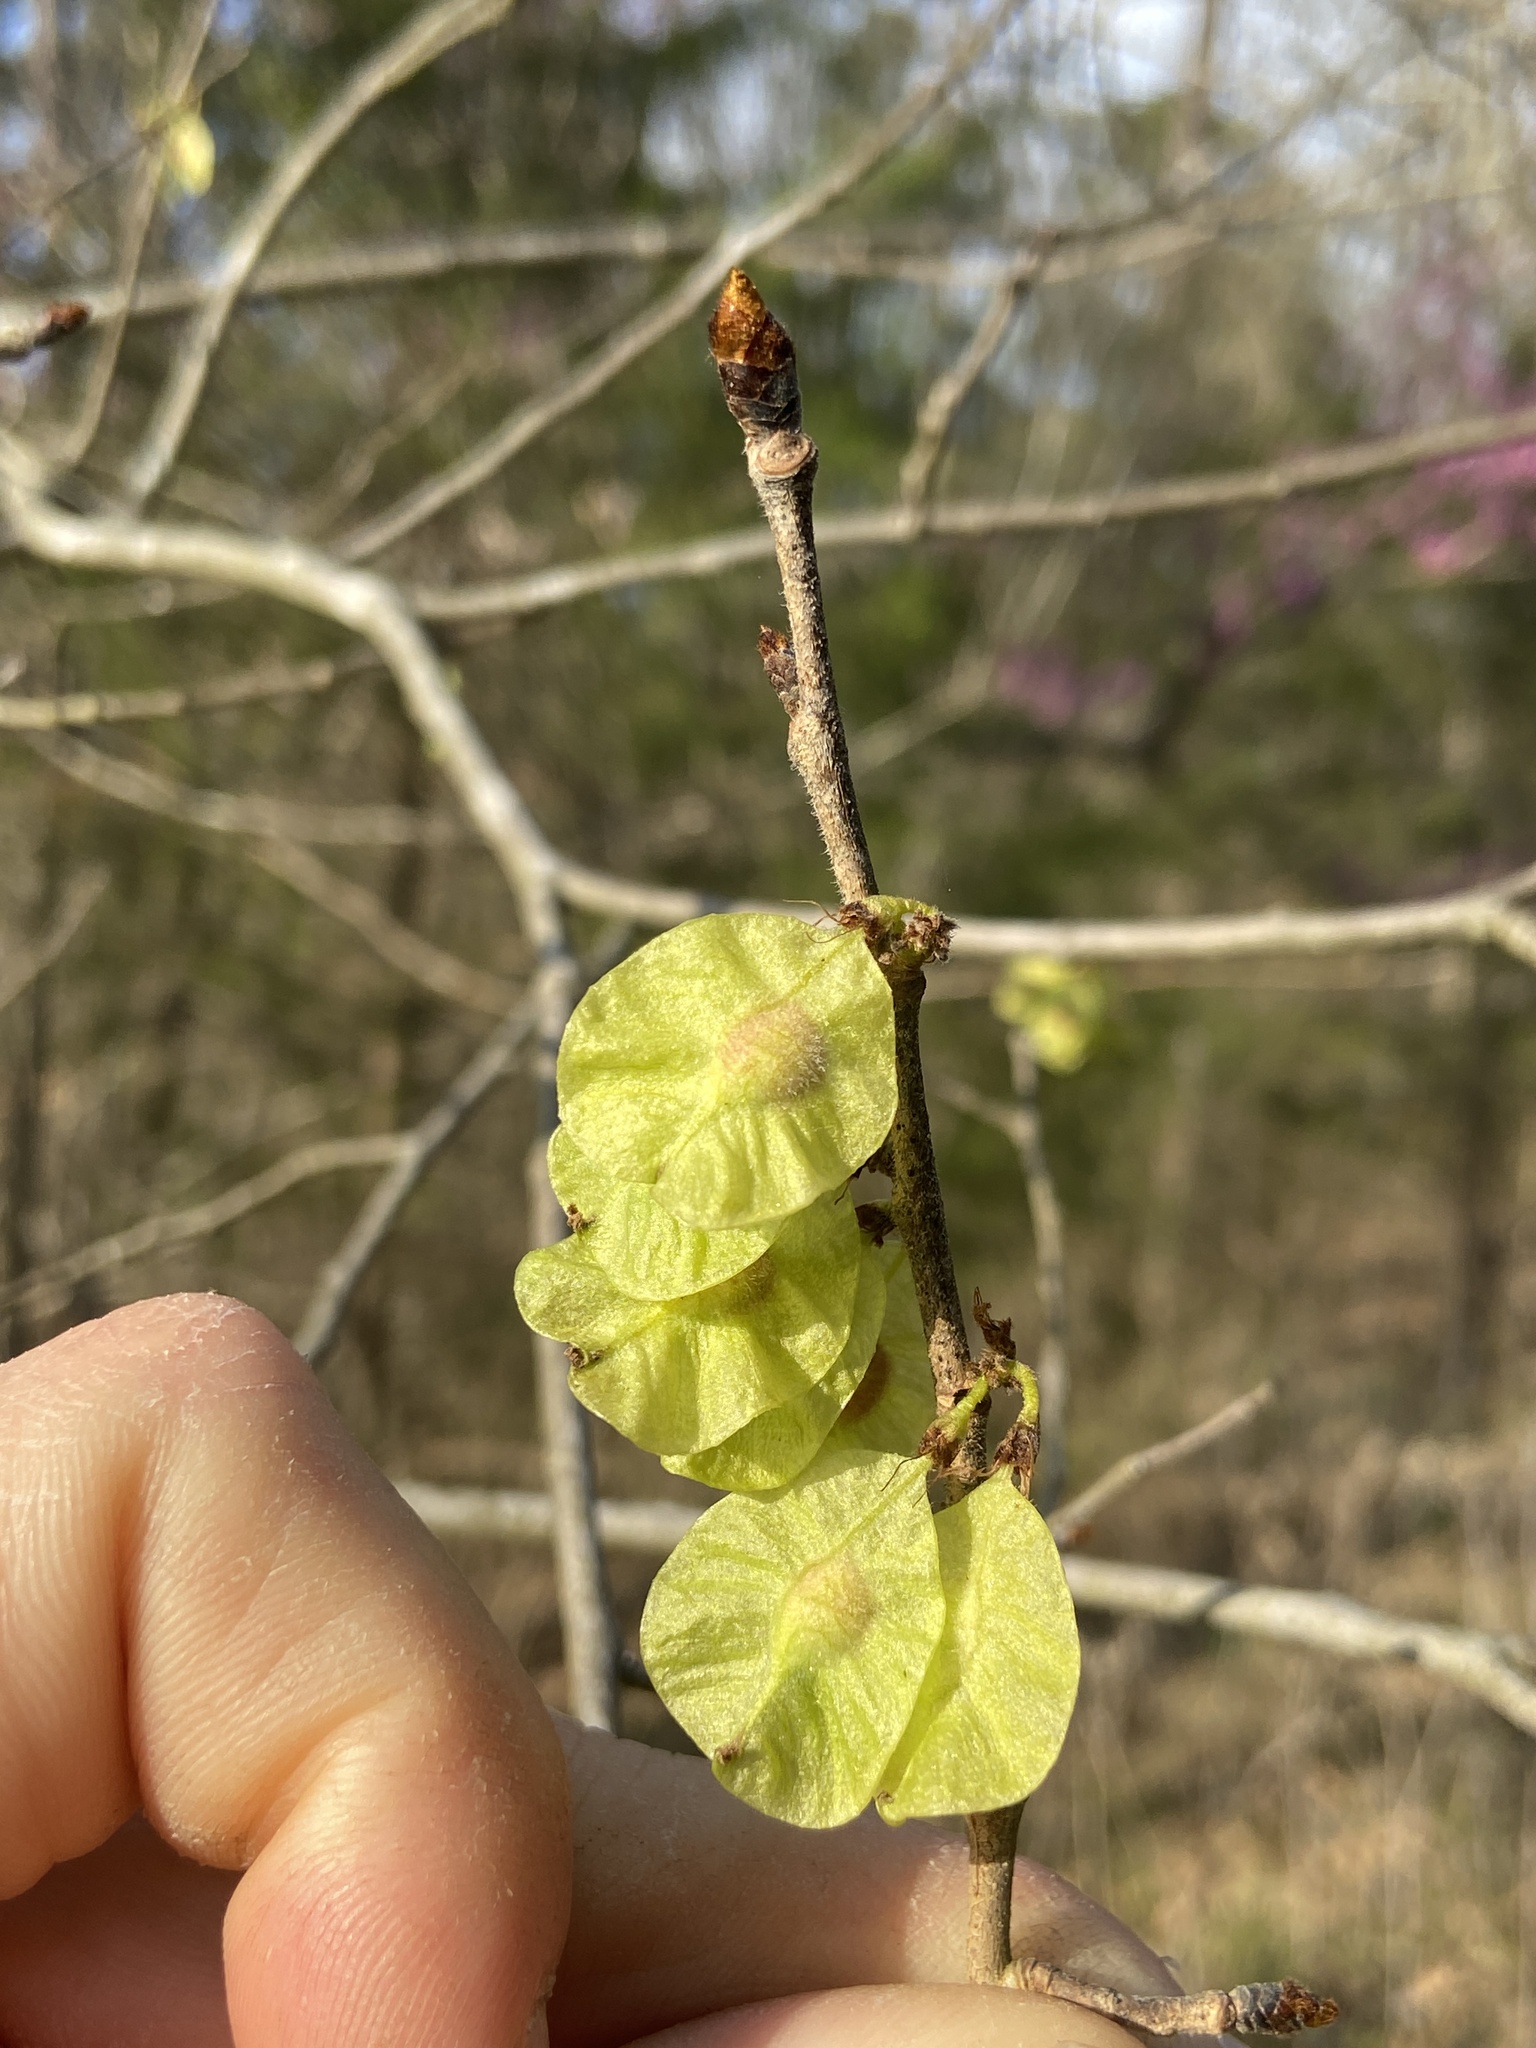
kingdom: Plantae
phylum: Tracheophyta
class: Magnoliopsida
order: Rosales
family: Ulmaceae
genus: Ulmus
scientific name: Ulmus rubra
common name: Slippery elm
